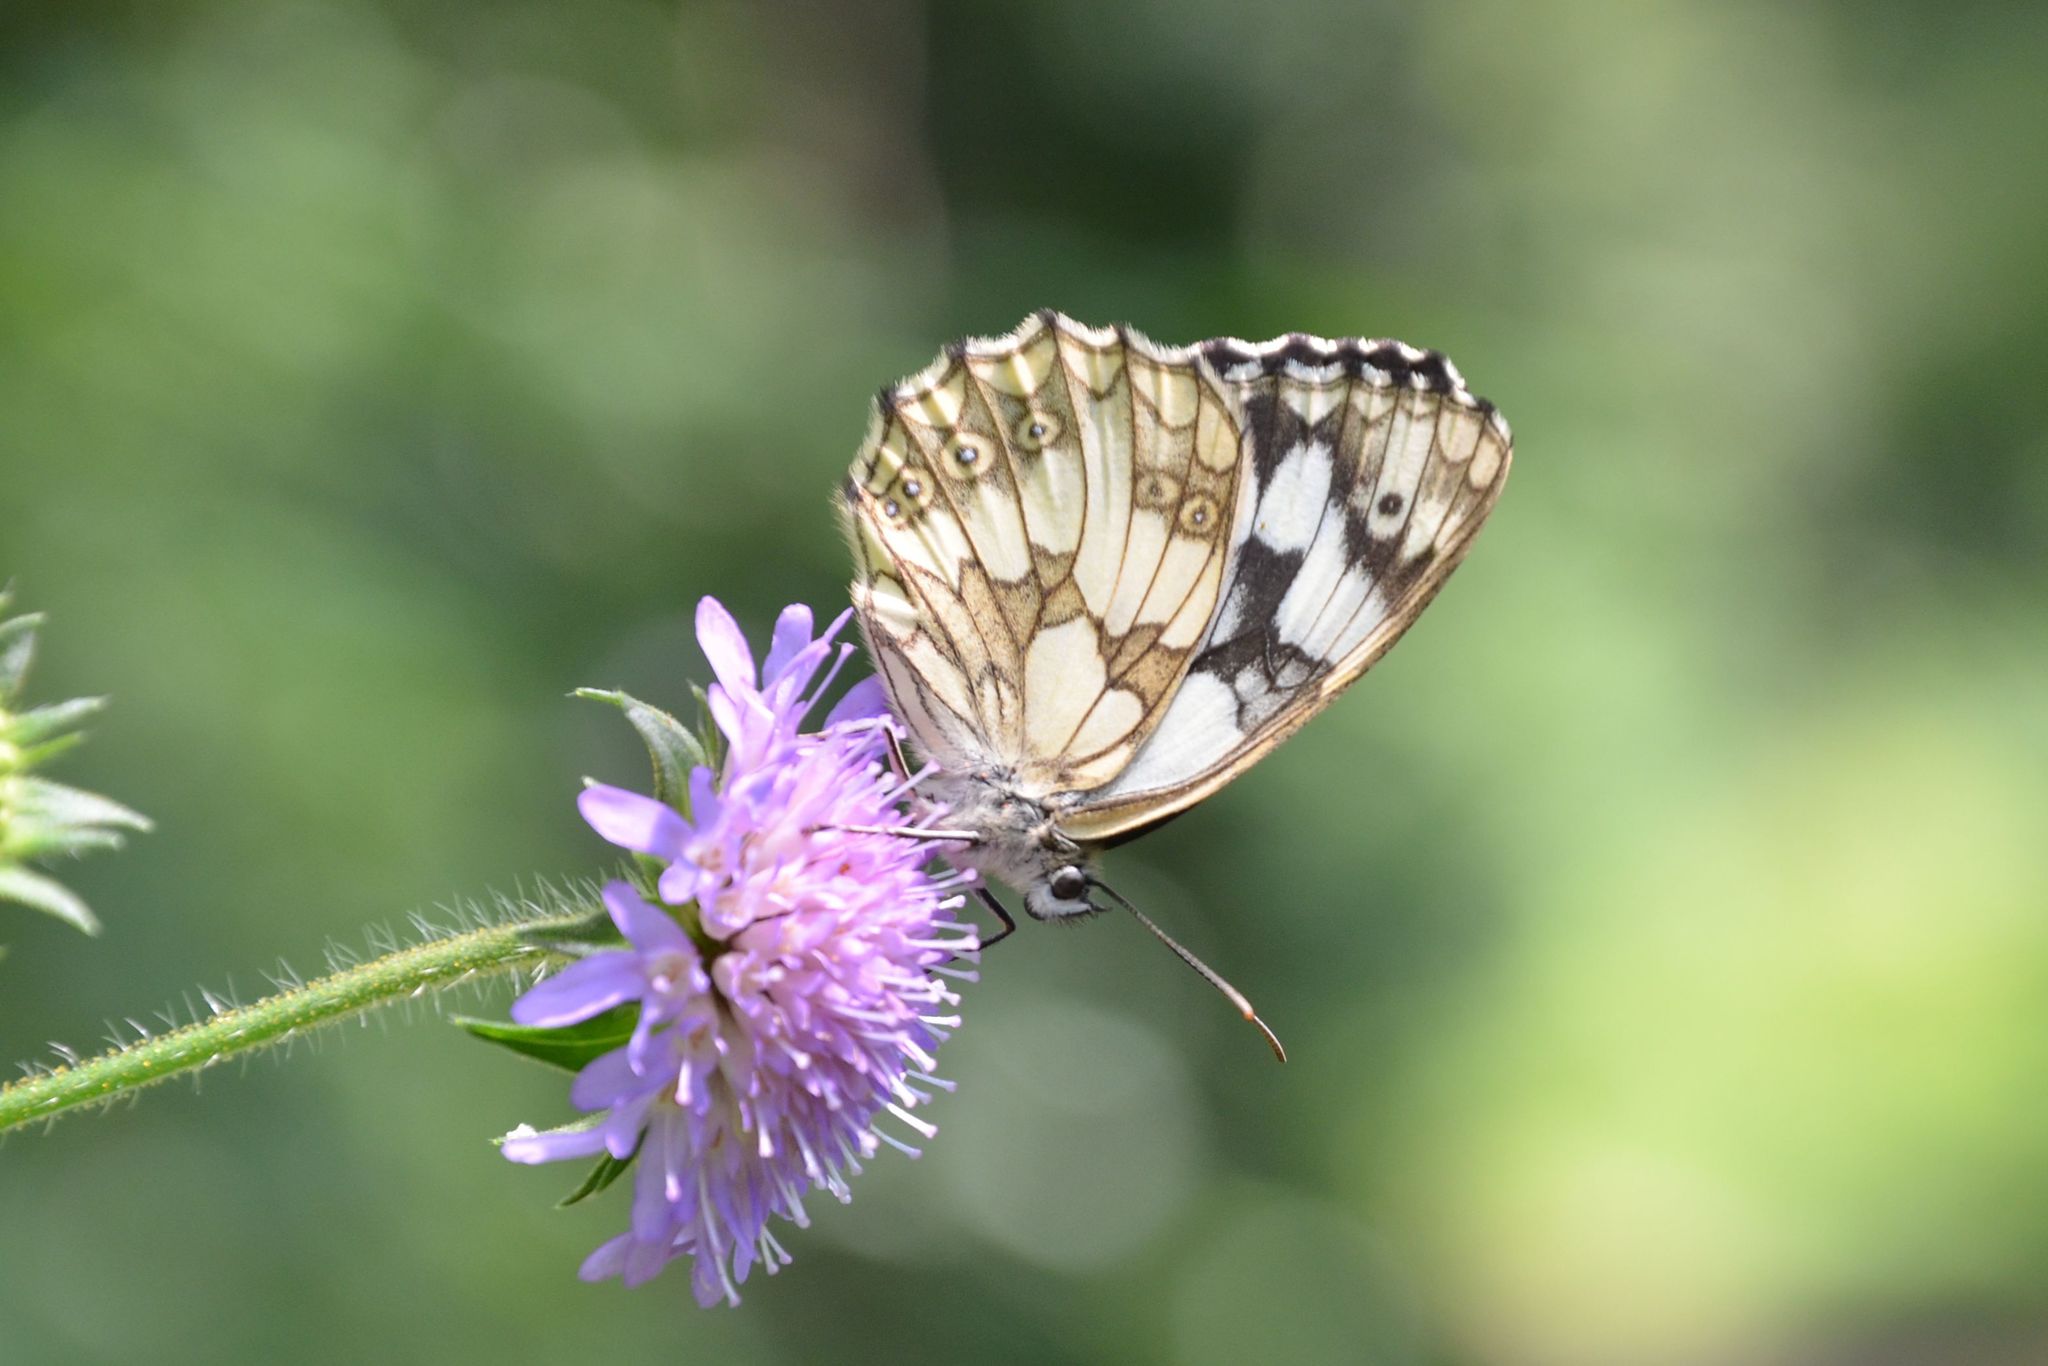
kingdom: Animalia
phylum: Arthropoda
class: Insecta
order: Lepidoptera
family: Nymphalidae
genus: Melanargia
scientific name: Melanargia galathea
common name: Marbled white
